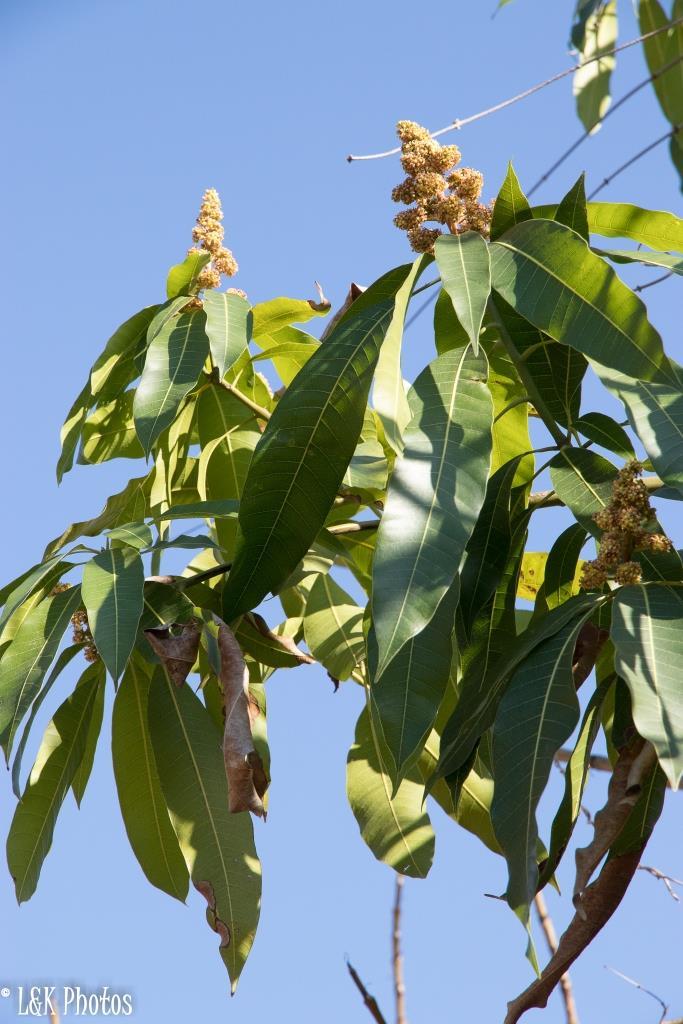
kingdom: Plantae
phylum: Tracheophyta
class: Magnoliopsida
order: Sapindales
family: Anacardiaceae
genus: Mangifera
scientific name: Mangifera indica
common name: Mango
